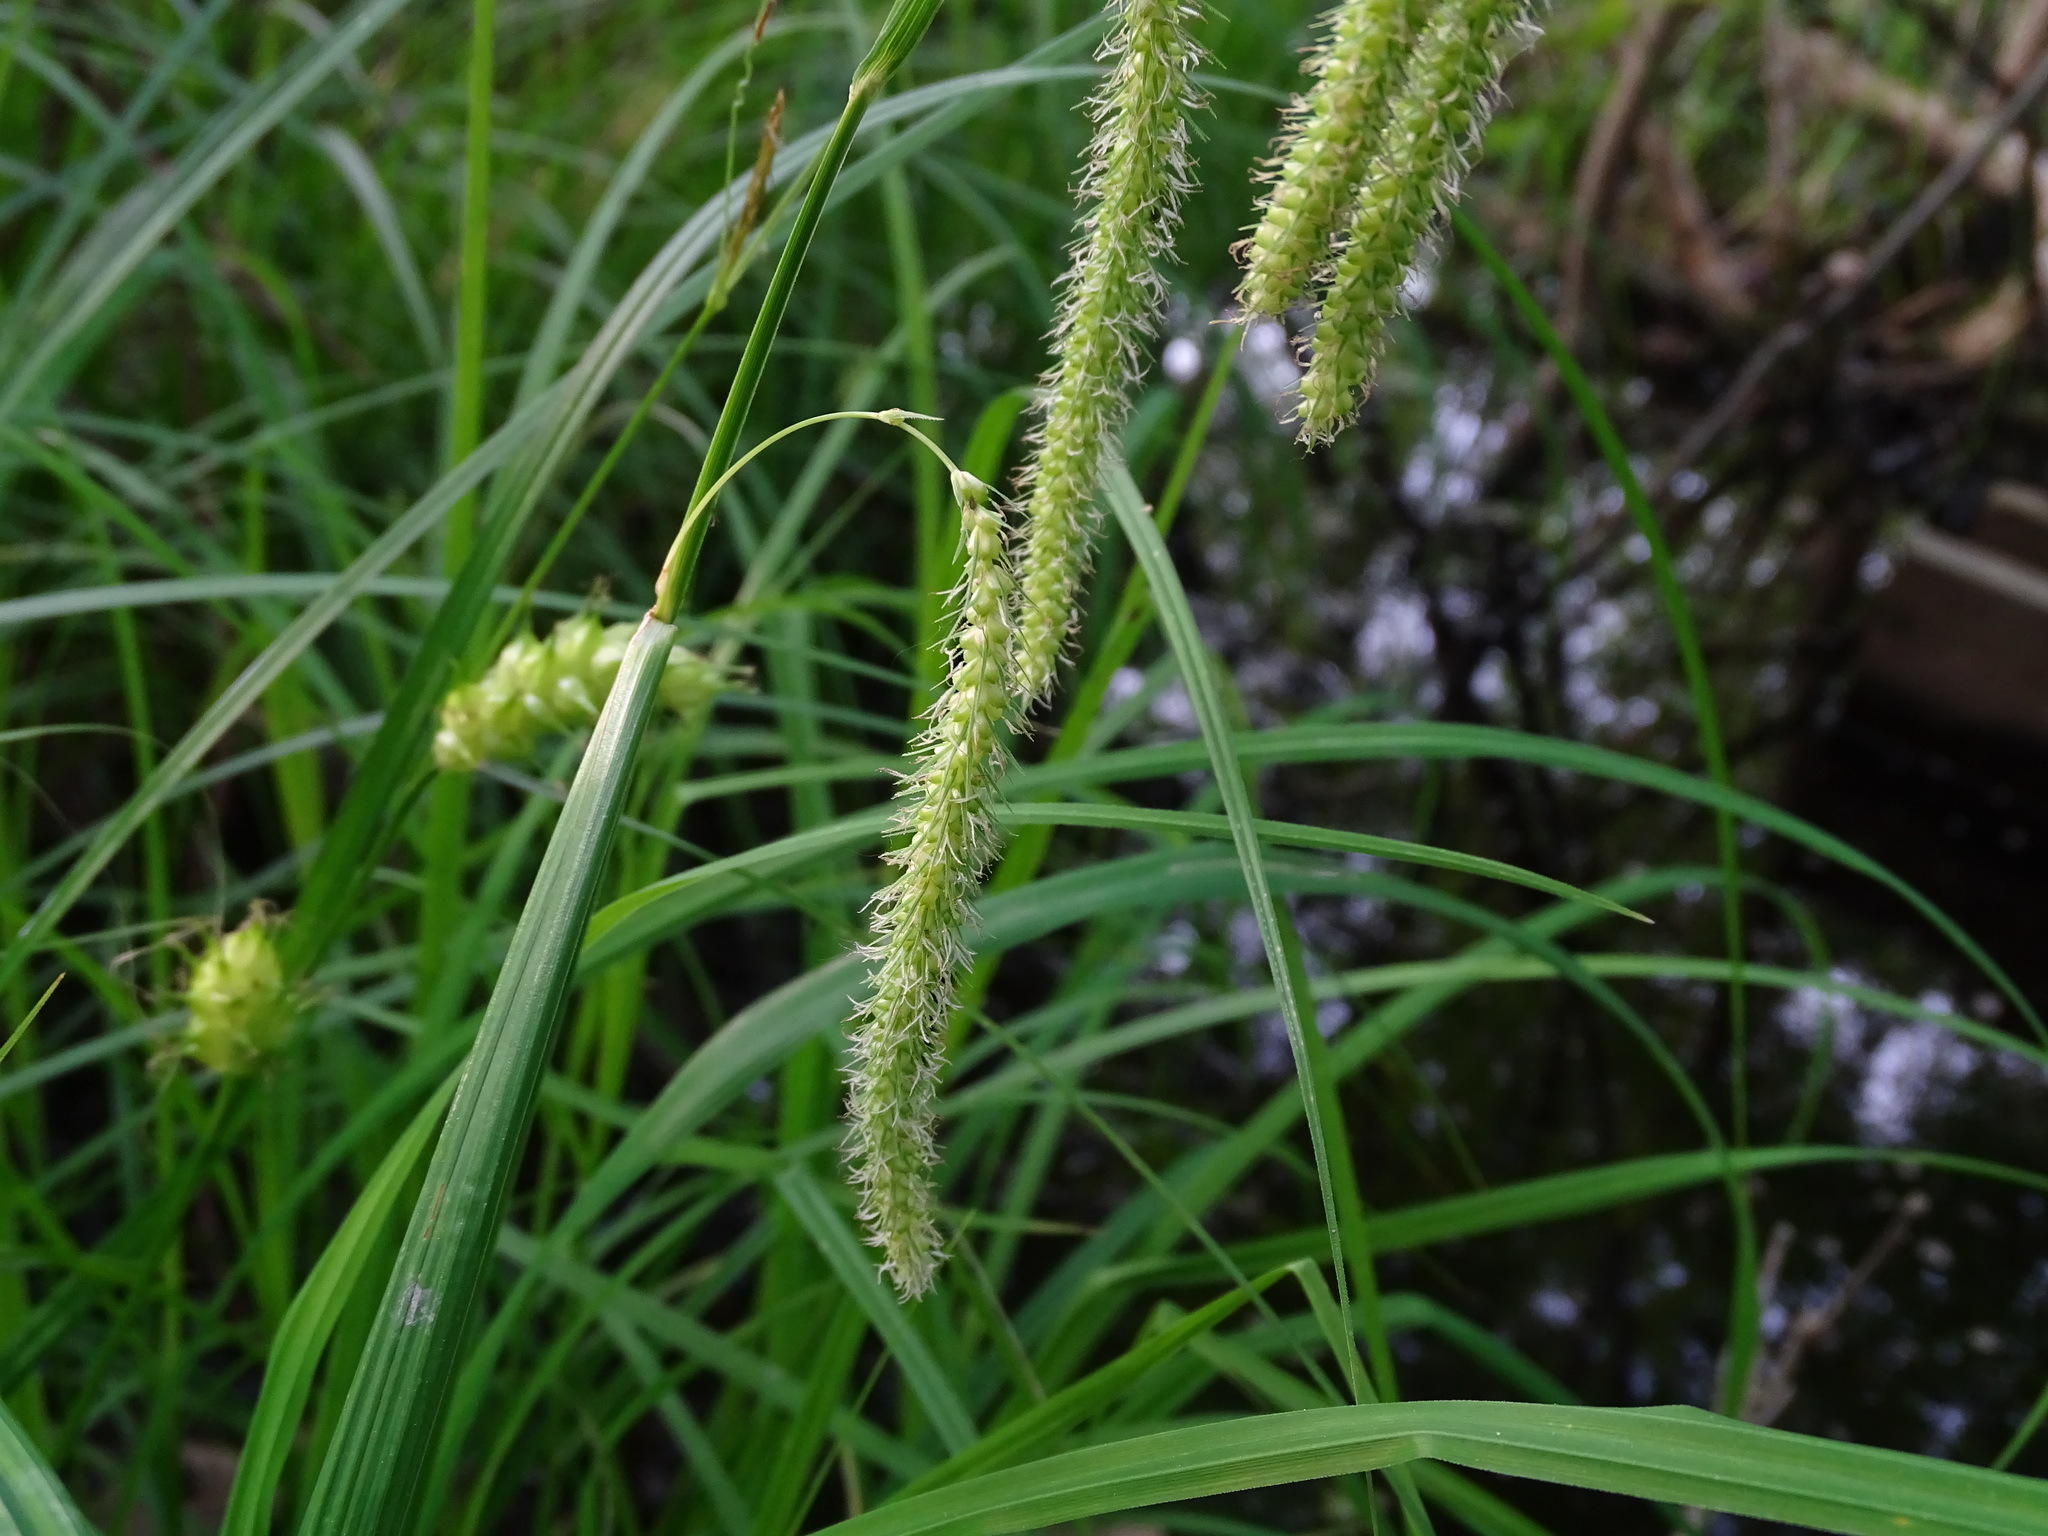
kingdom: Plantae
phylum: Tracheophyta
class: Liliopsida
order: Poales
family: Cyperaceae
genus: Carex
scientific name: Carex crinita
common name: Fringed sedge
